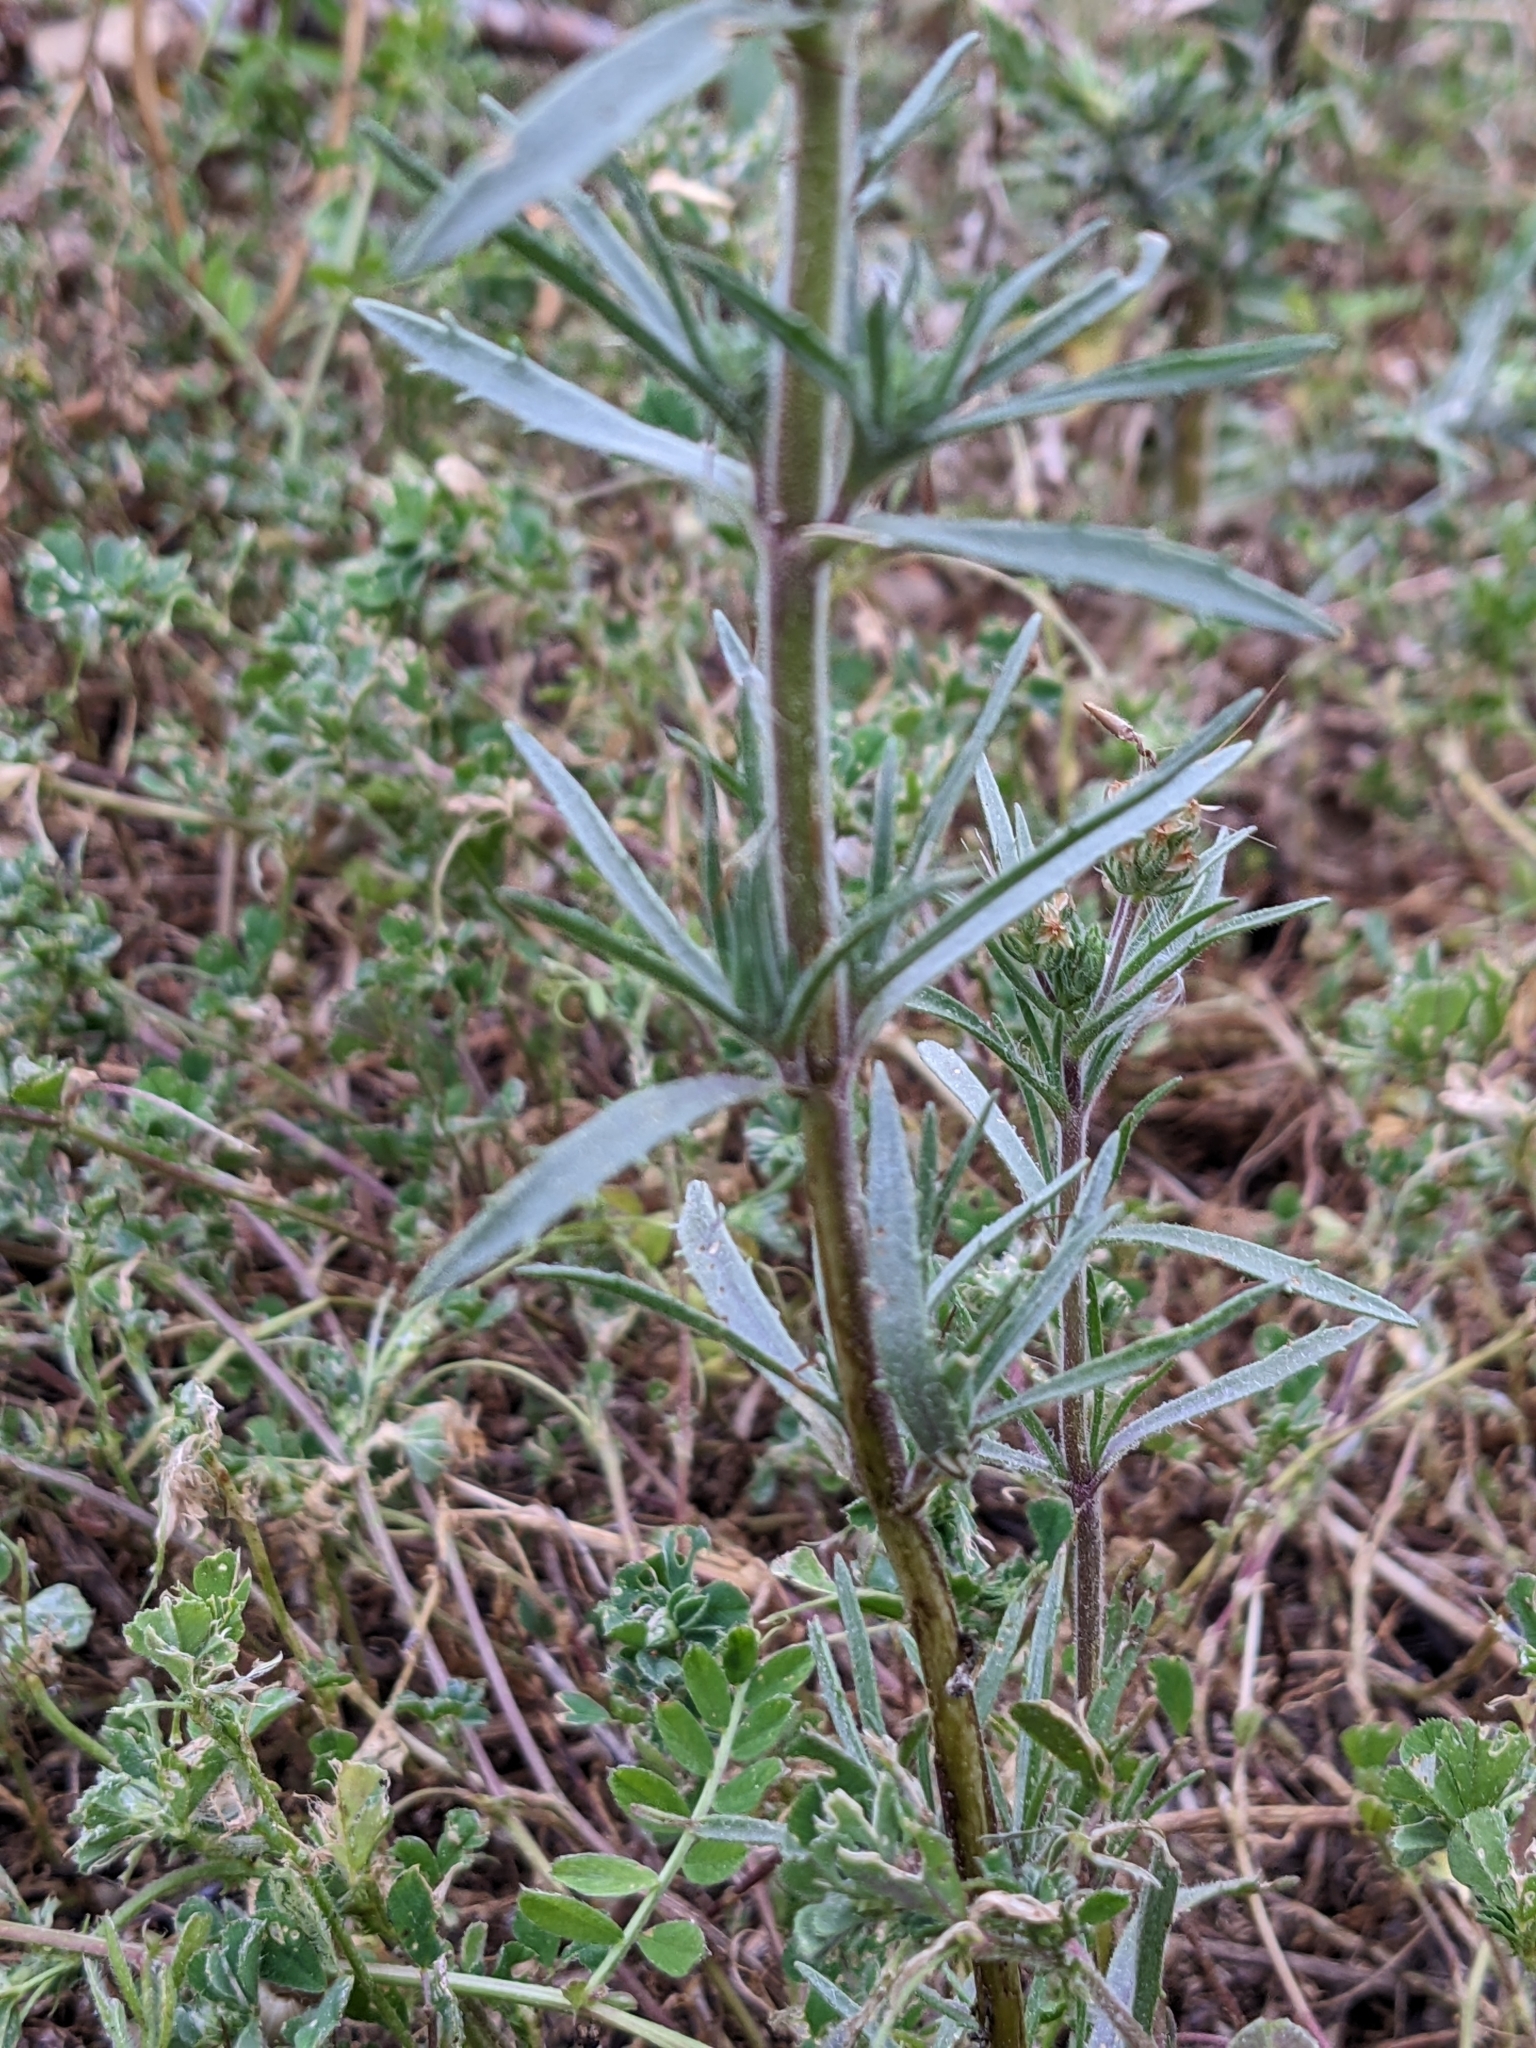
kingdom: Plantae
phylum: Tracheophyta
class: Magnoliopsida
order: Lamiales
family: Plantaginaceae
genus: Plantago
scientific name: Plantago afra
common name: Glandular plantain
